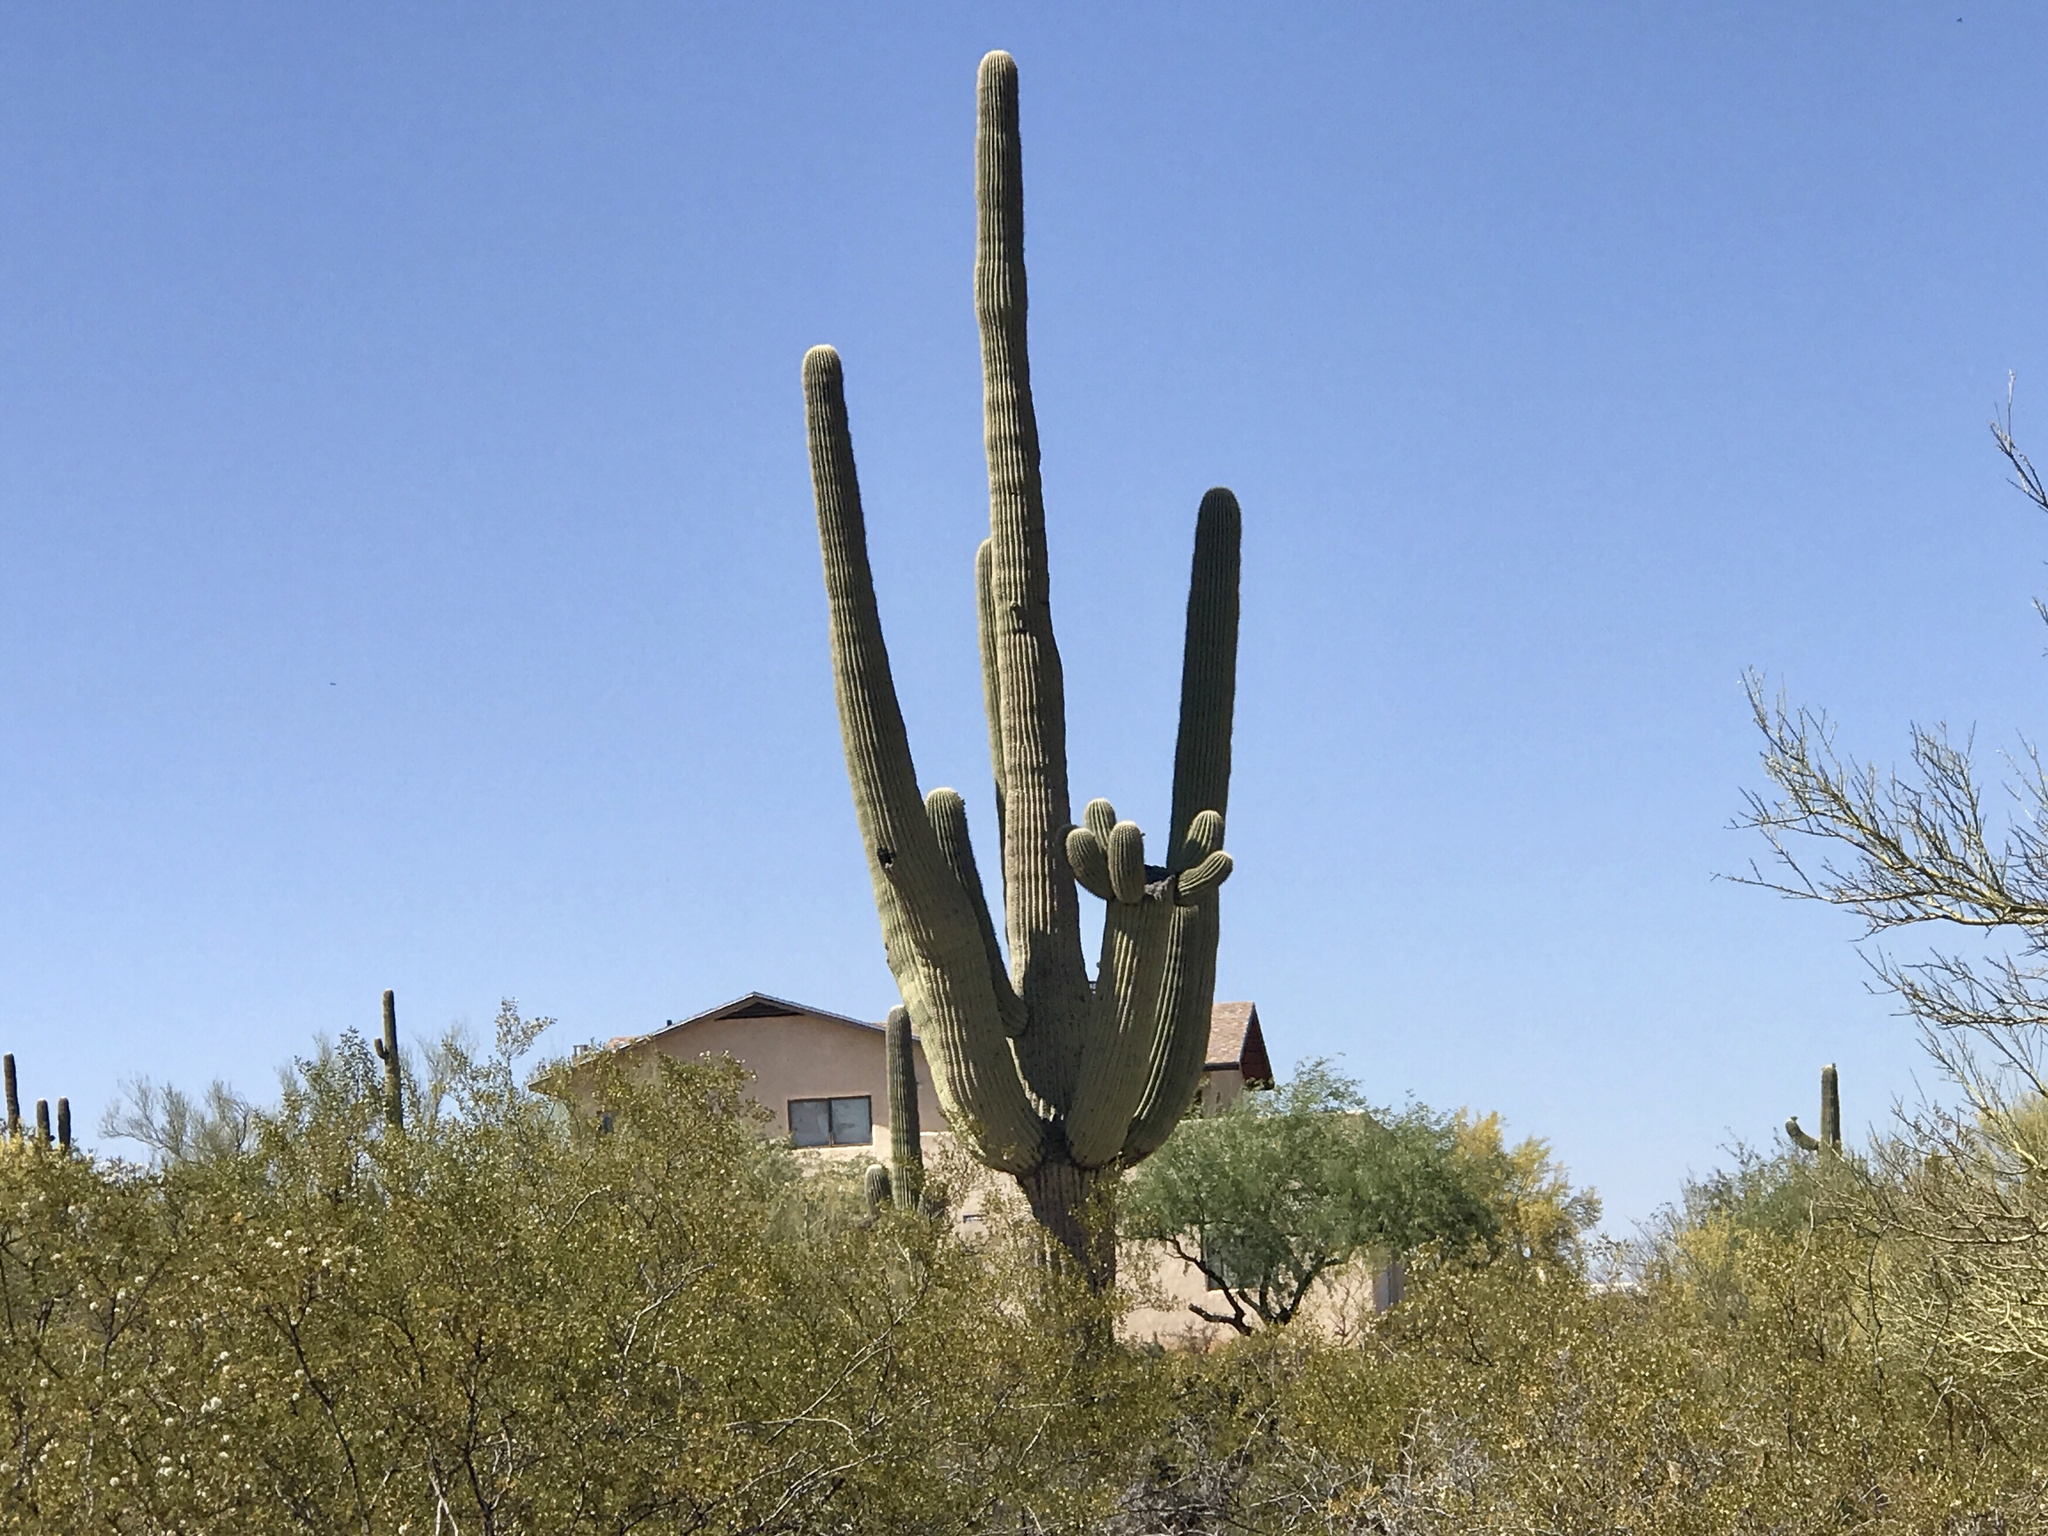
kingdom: Plantae
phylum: Tracheophyta
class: Magnoliopsida
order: Caryophyllales
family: Cactaceae
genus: Carnegiea
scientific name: Carnegiea gigantea
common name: Saguaro
